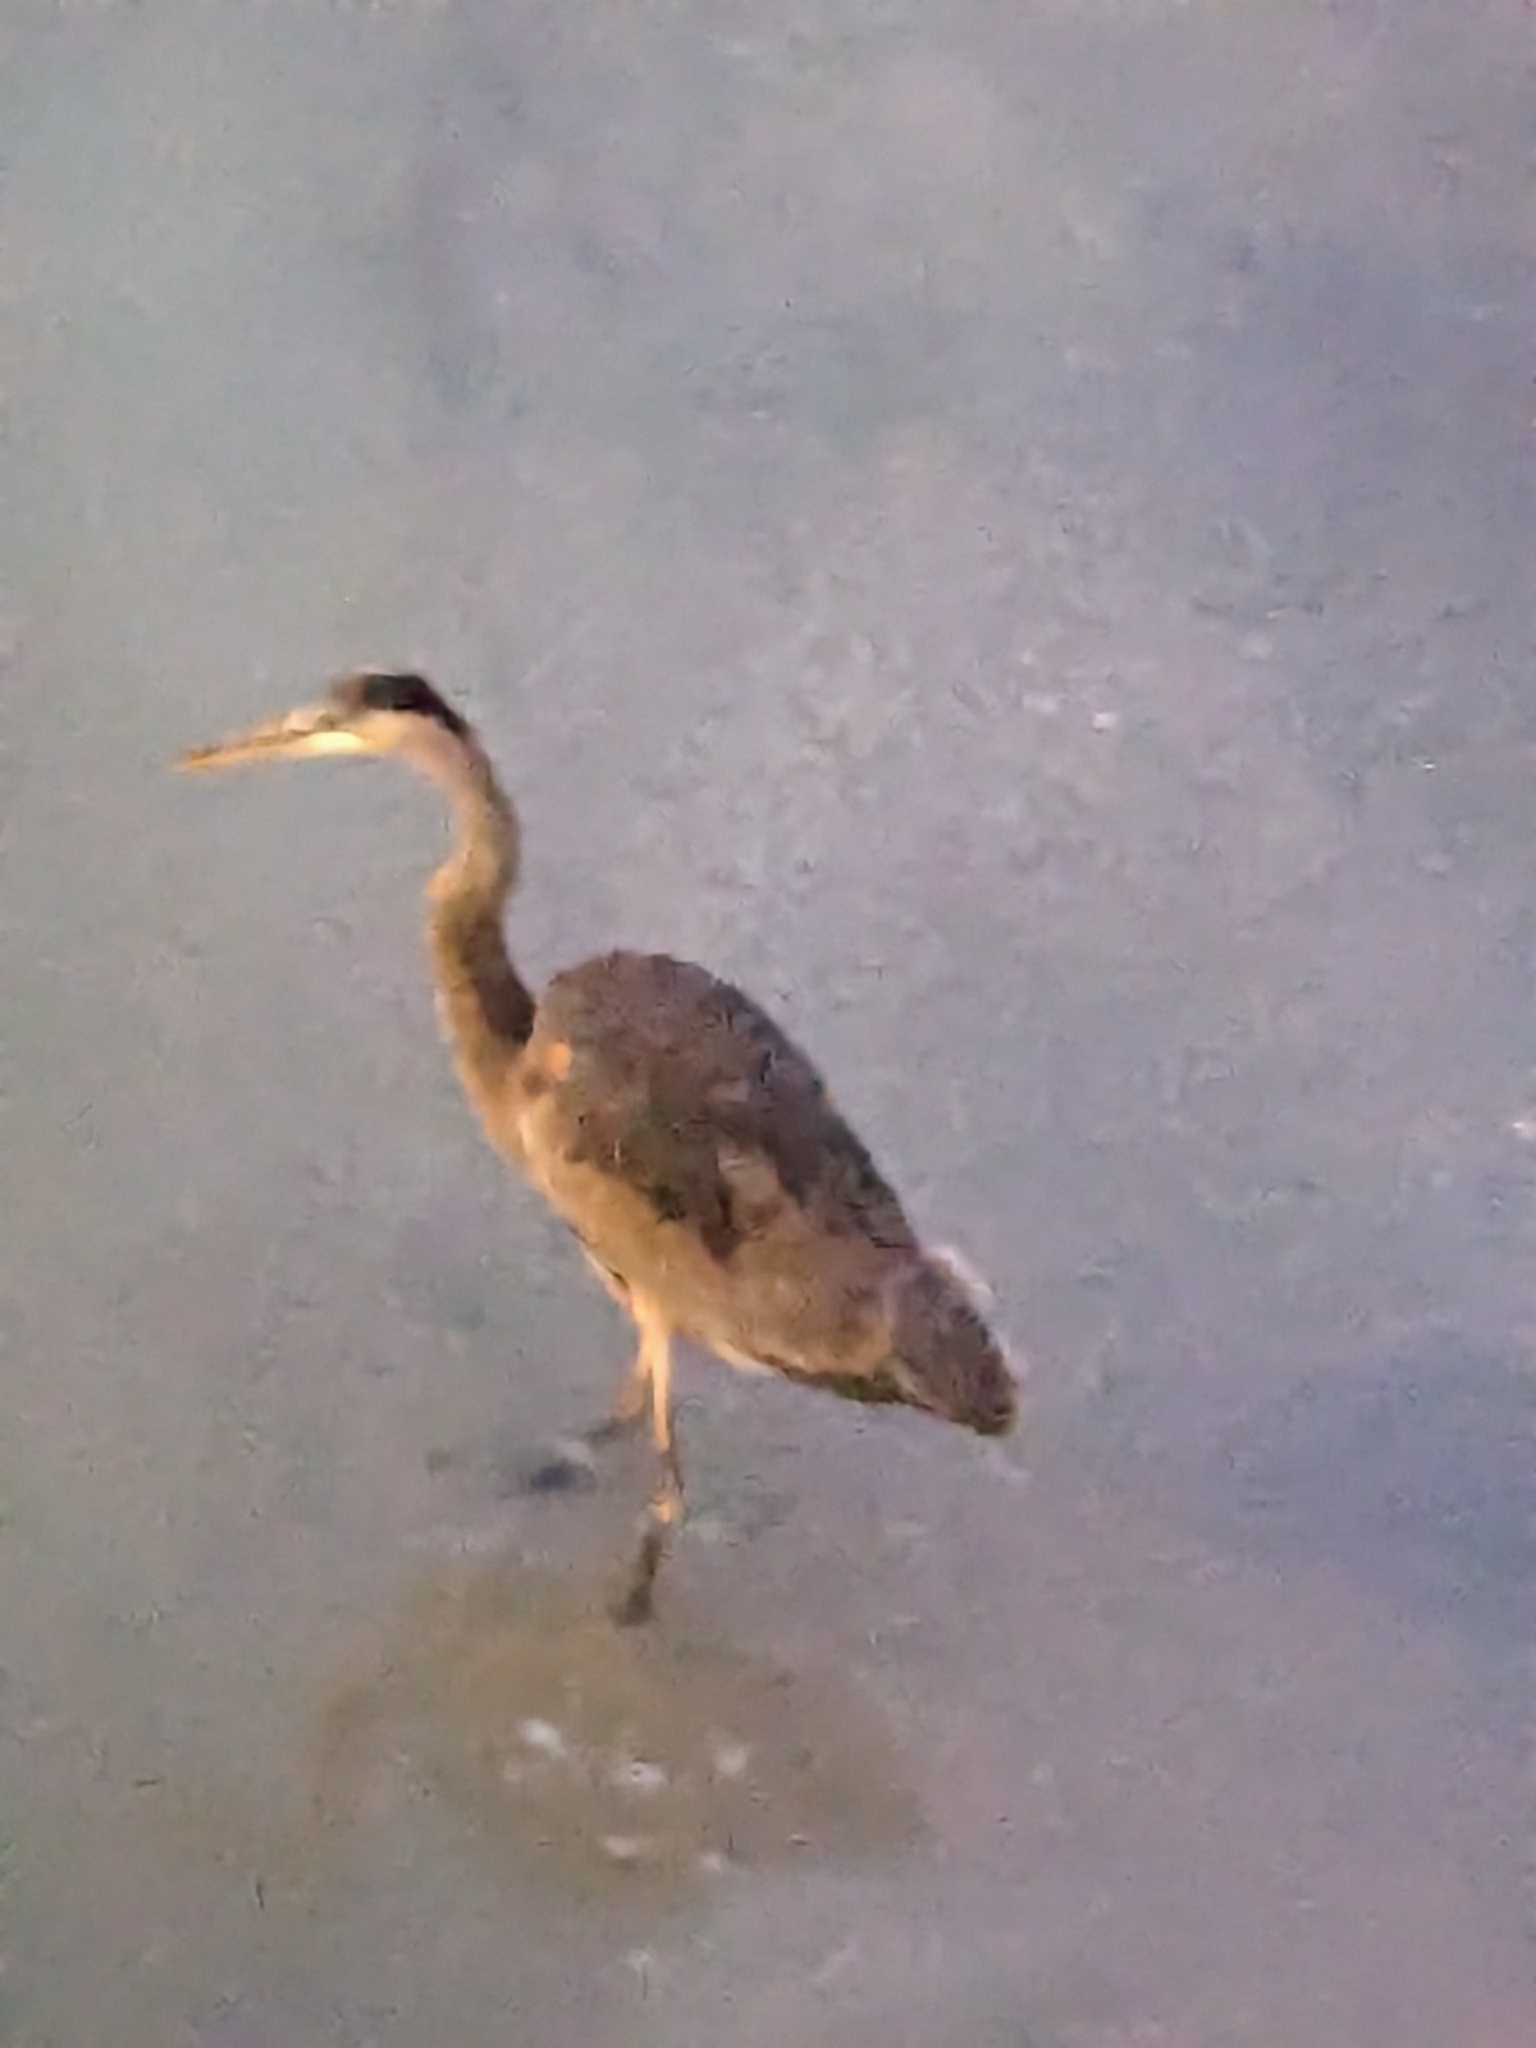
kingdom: Animalia
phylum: Chordata
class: Aves
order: Pelecaniformes
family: Ardeidae
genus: Ardea
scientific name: Ardea herodias
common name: Great blue heron
